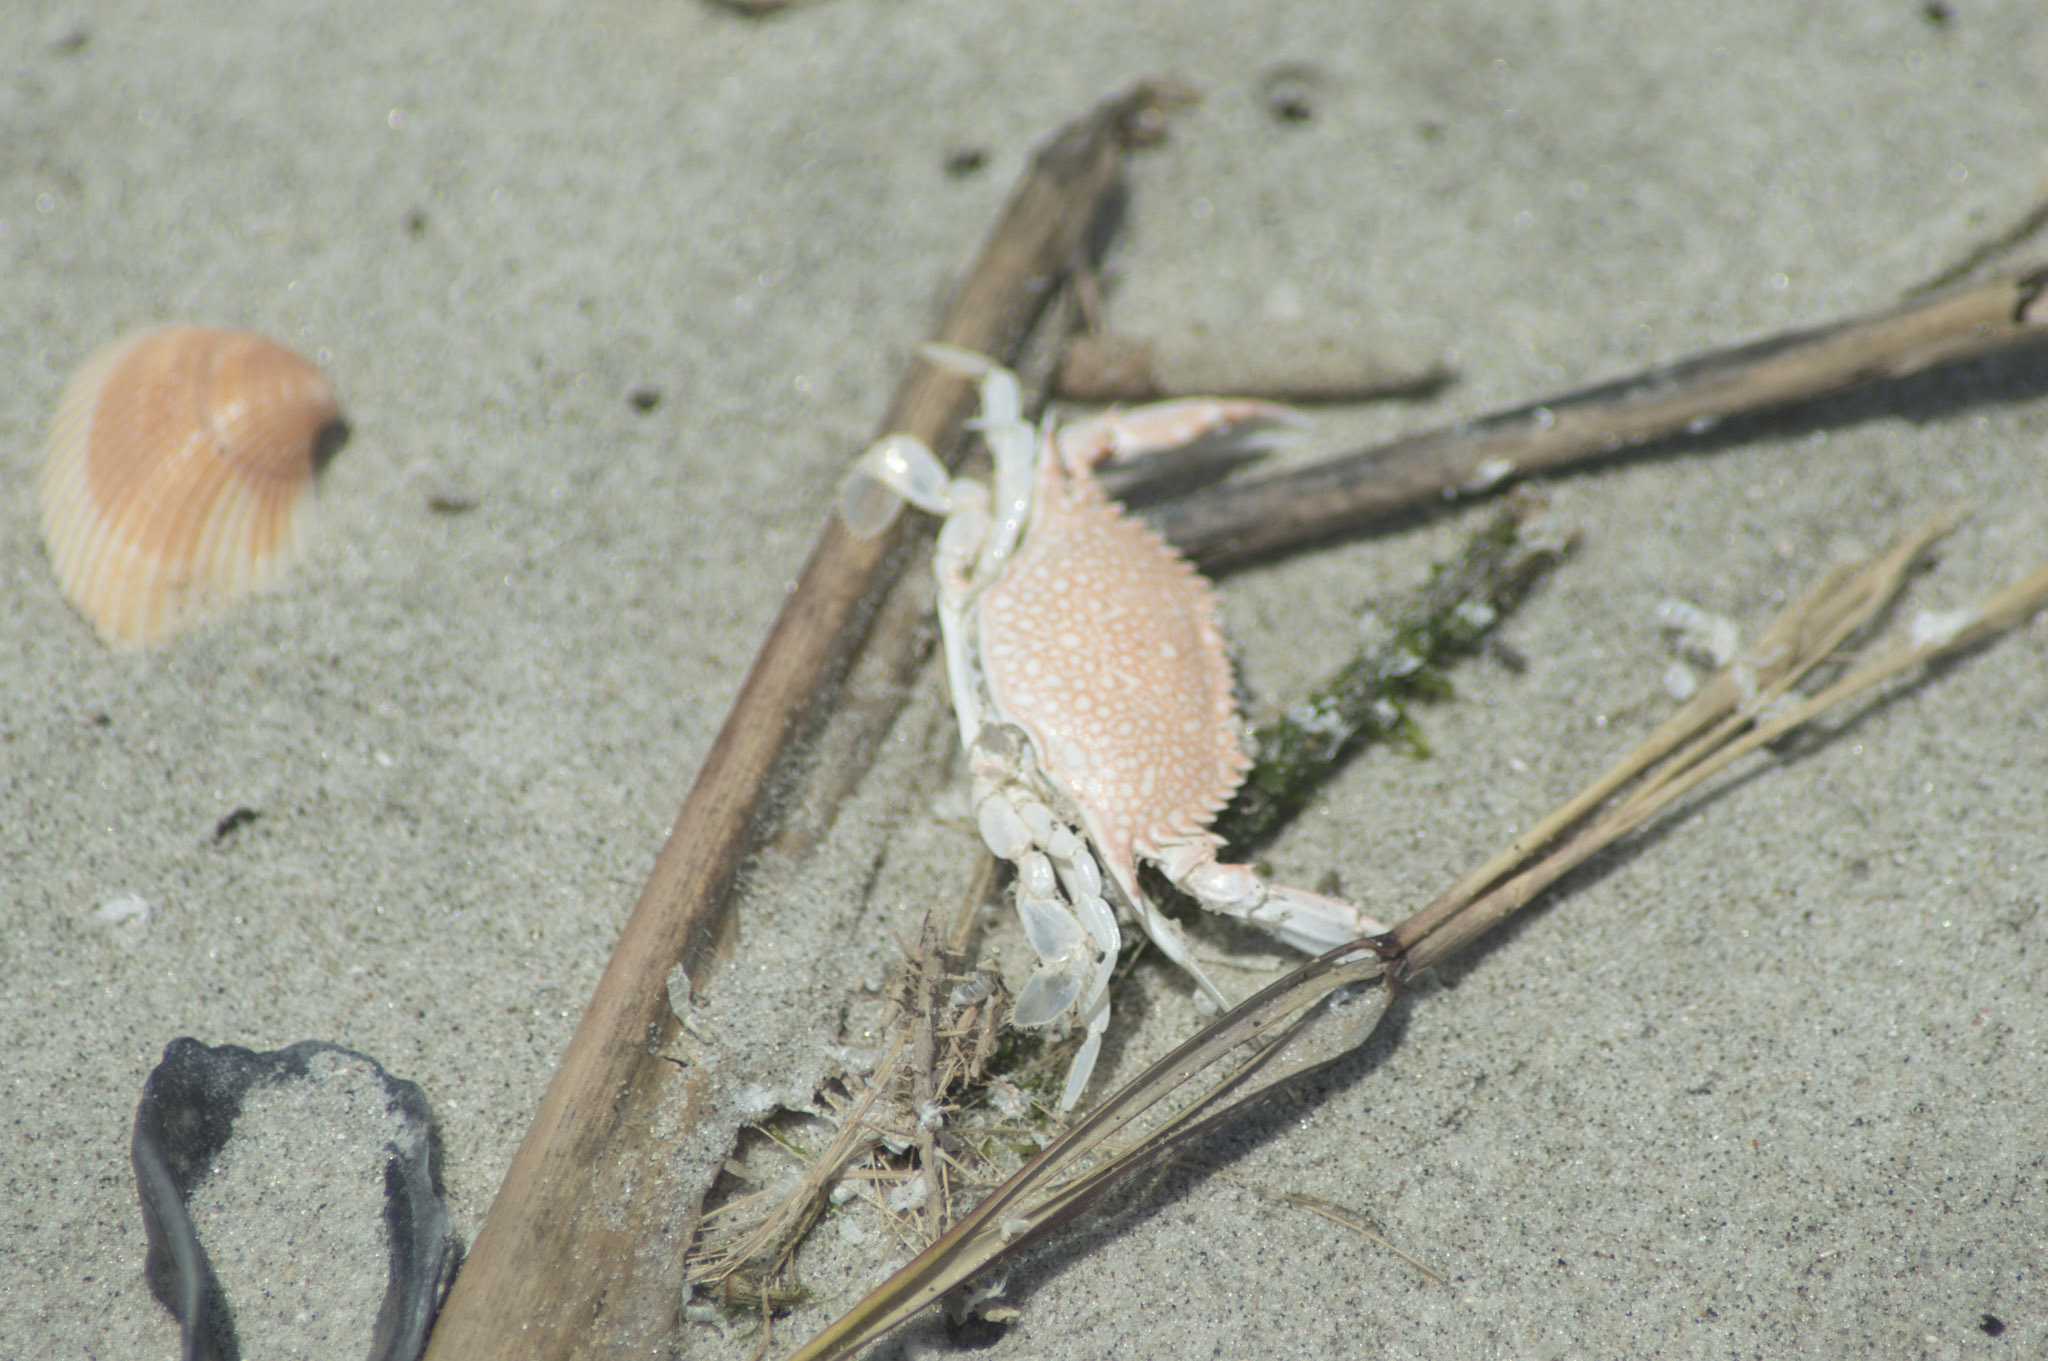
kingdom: Animalia
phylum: Arthropoda
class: Malacostraca
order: Decapoda
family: Portunidae
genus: Arenaeus
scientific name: Arenaeus cribrarius
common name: Speckled crab
